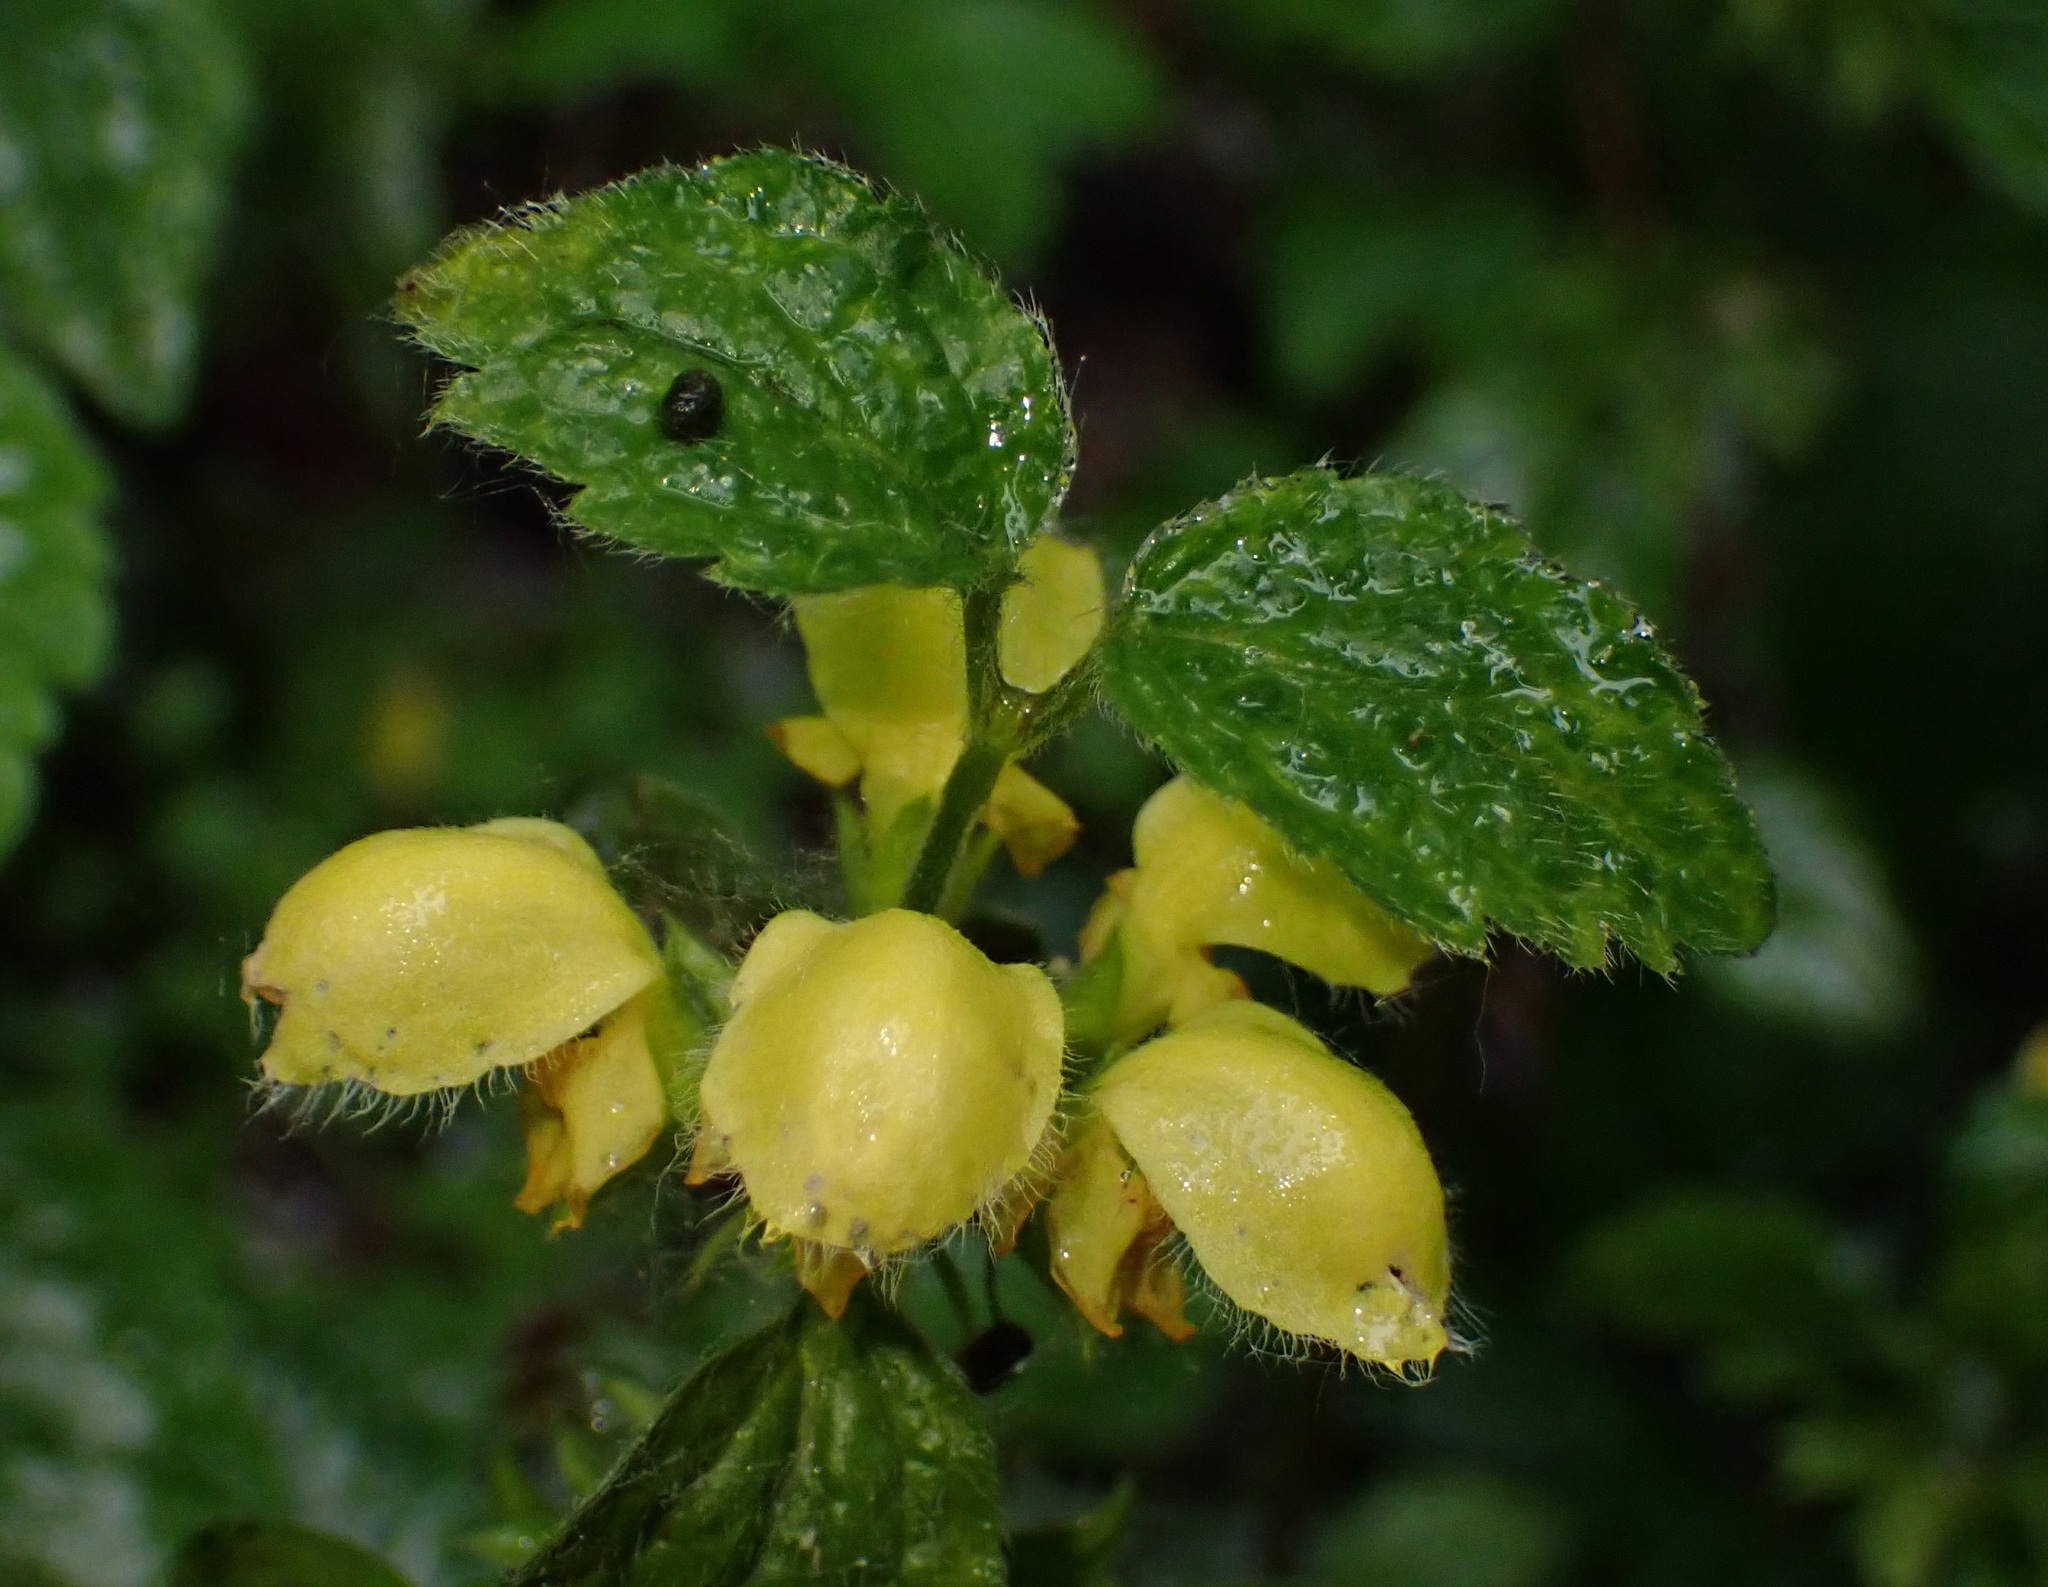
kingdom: Plantae
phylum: Tracheophyta
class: Magnoliopsida
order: Lamiales
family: Lamiaceae
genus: Lamium
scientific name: Lamium galeobdolon
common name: Yellow archangel
